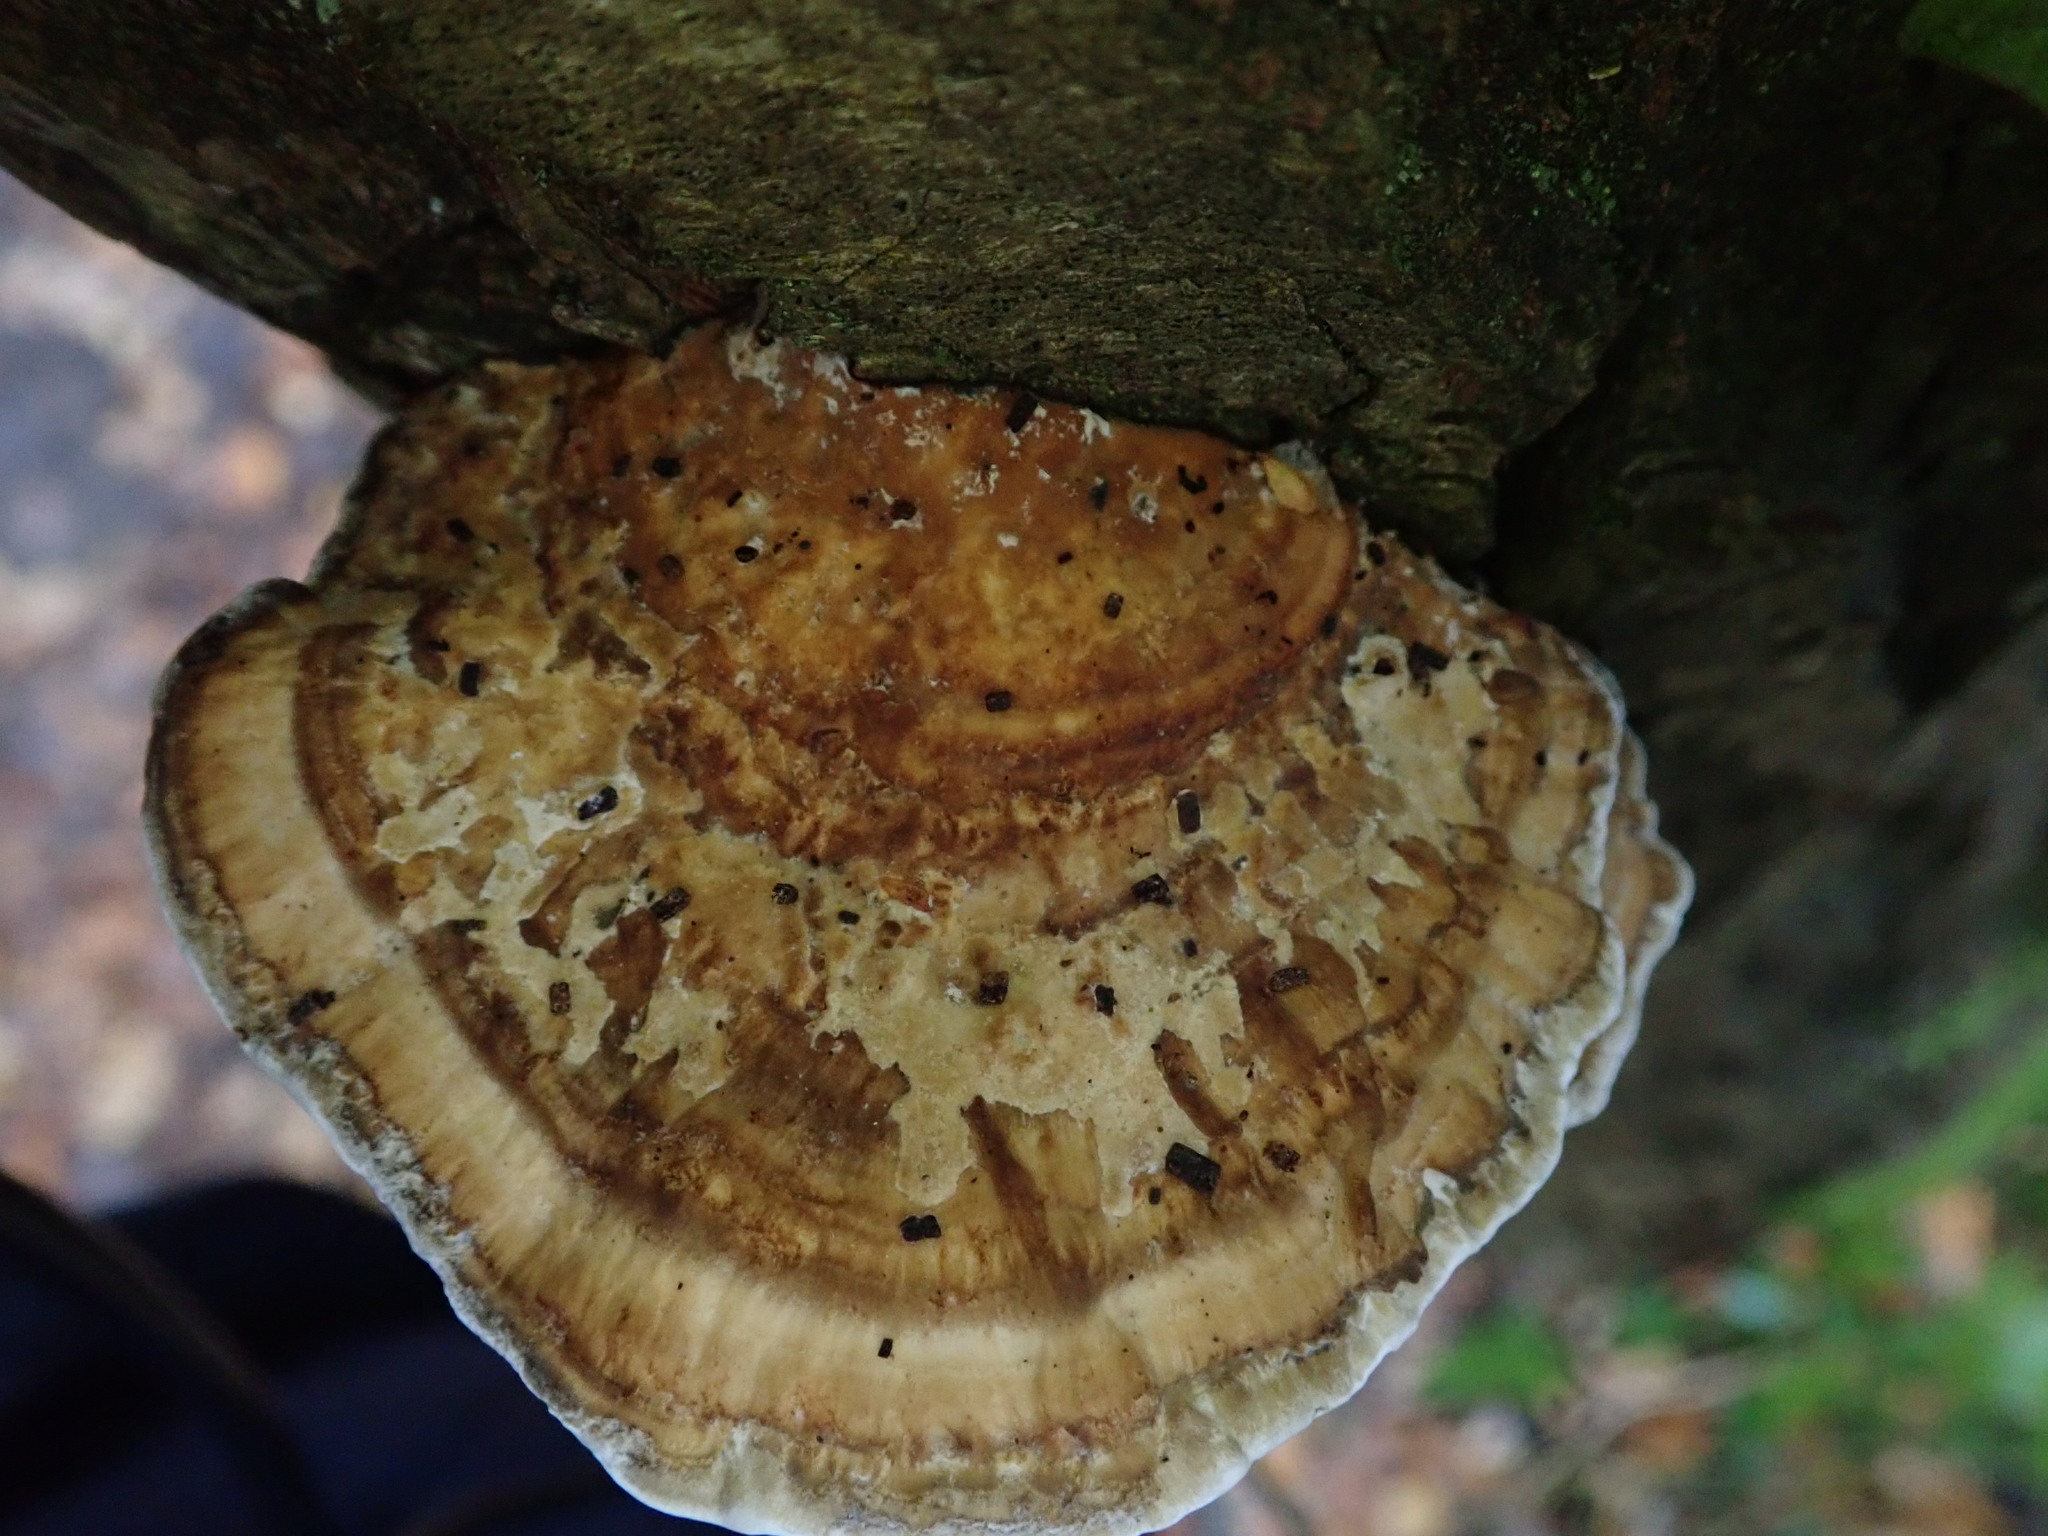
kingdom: Fungi
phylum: Basidiomycota
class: Agaricomycetes
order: Polyporales
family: Fomitopsidaceae
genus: Fomitopsis
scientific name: Fomitopsis
